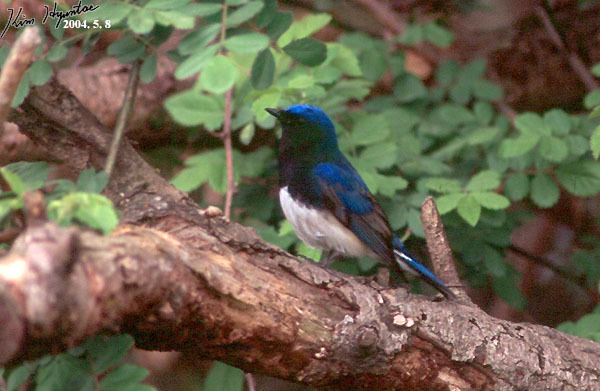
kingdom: Animalia
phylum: Chordata
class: Aves
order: Passeriformes
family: Muscicapidae
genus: Cyanoptila
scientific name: Cyanoptila cyanomelana
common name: Blue-and-white flycatcher
